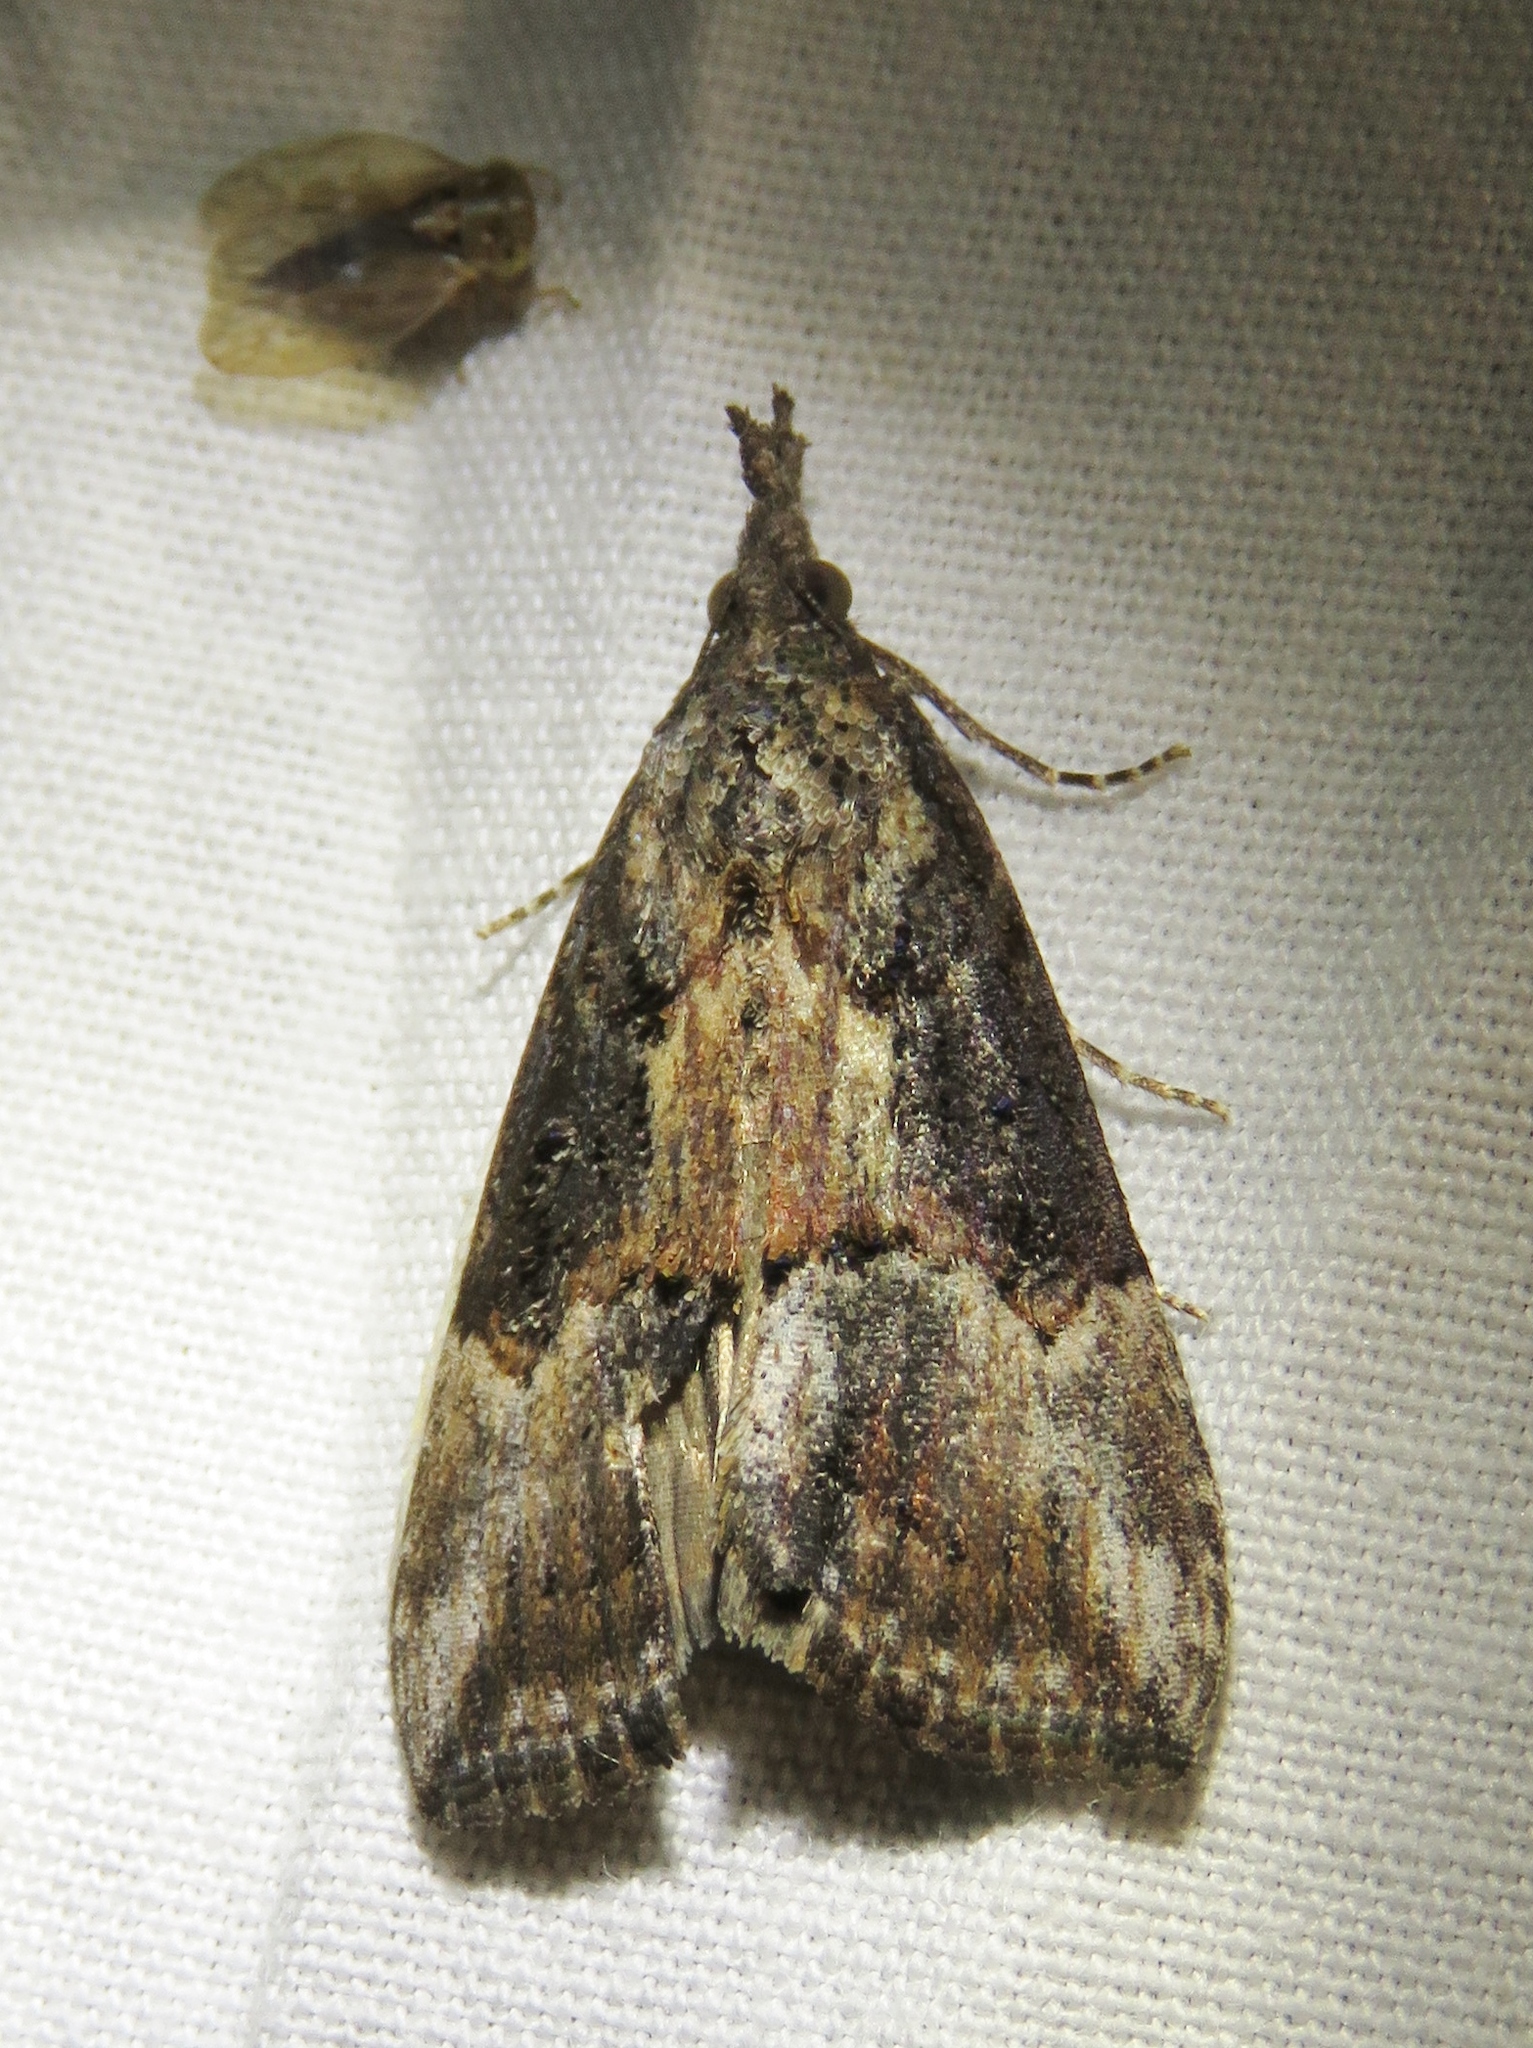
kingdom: Animalia
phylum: Arthropoda
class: Insecta
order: Lepidoptera
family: Erebidae
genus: Hypena
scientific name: Hypena scabra
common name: Green cloverworm
